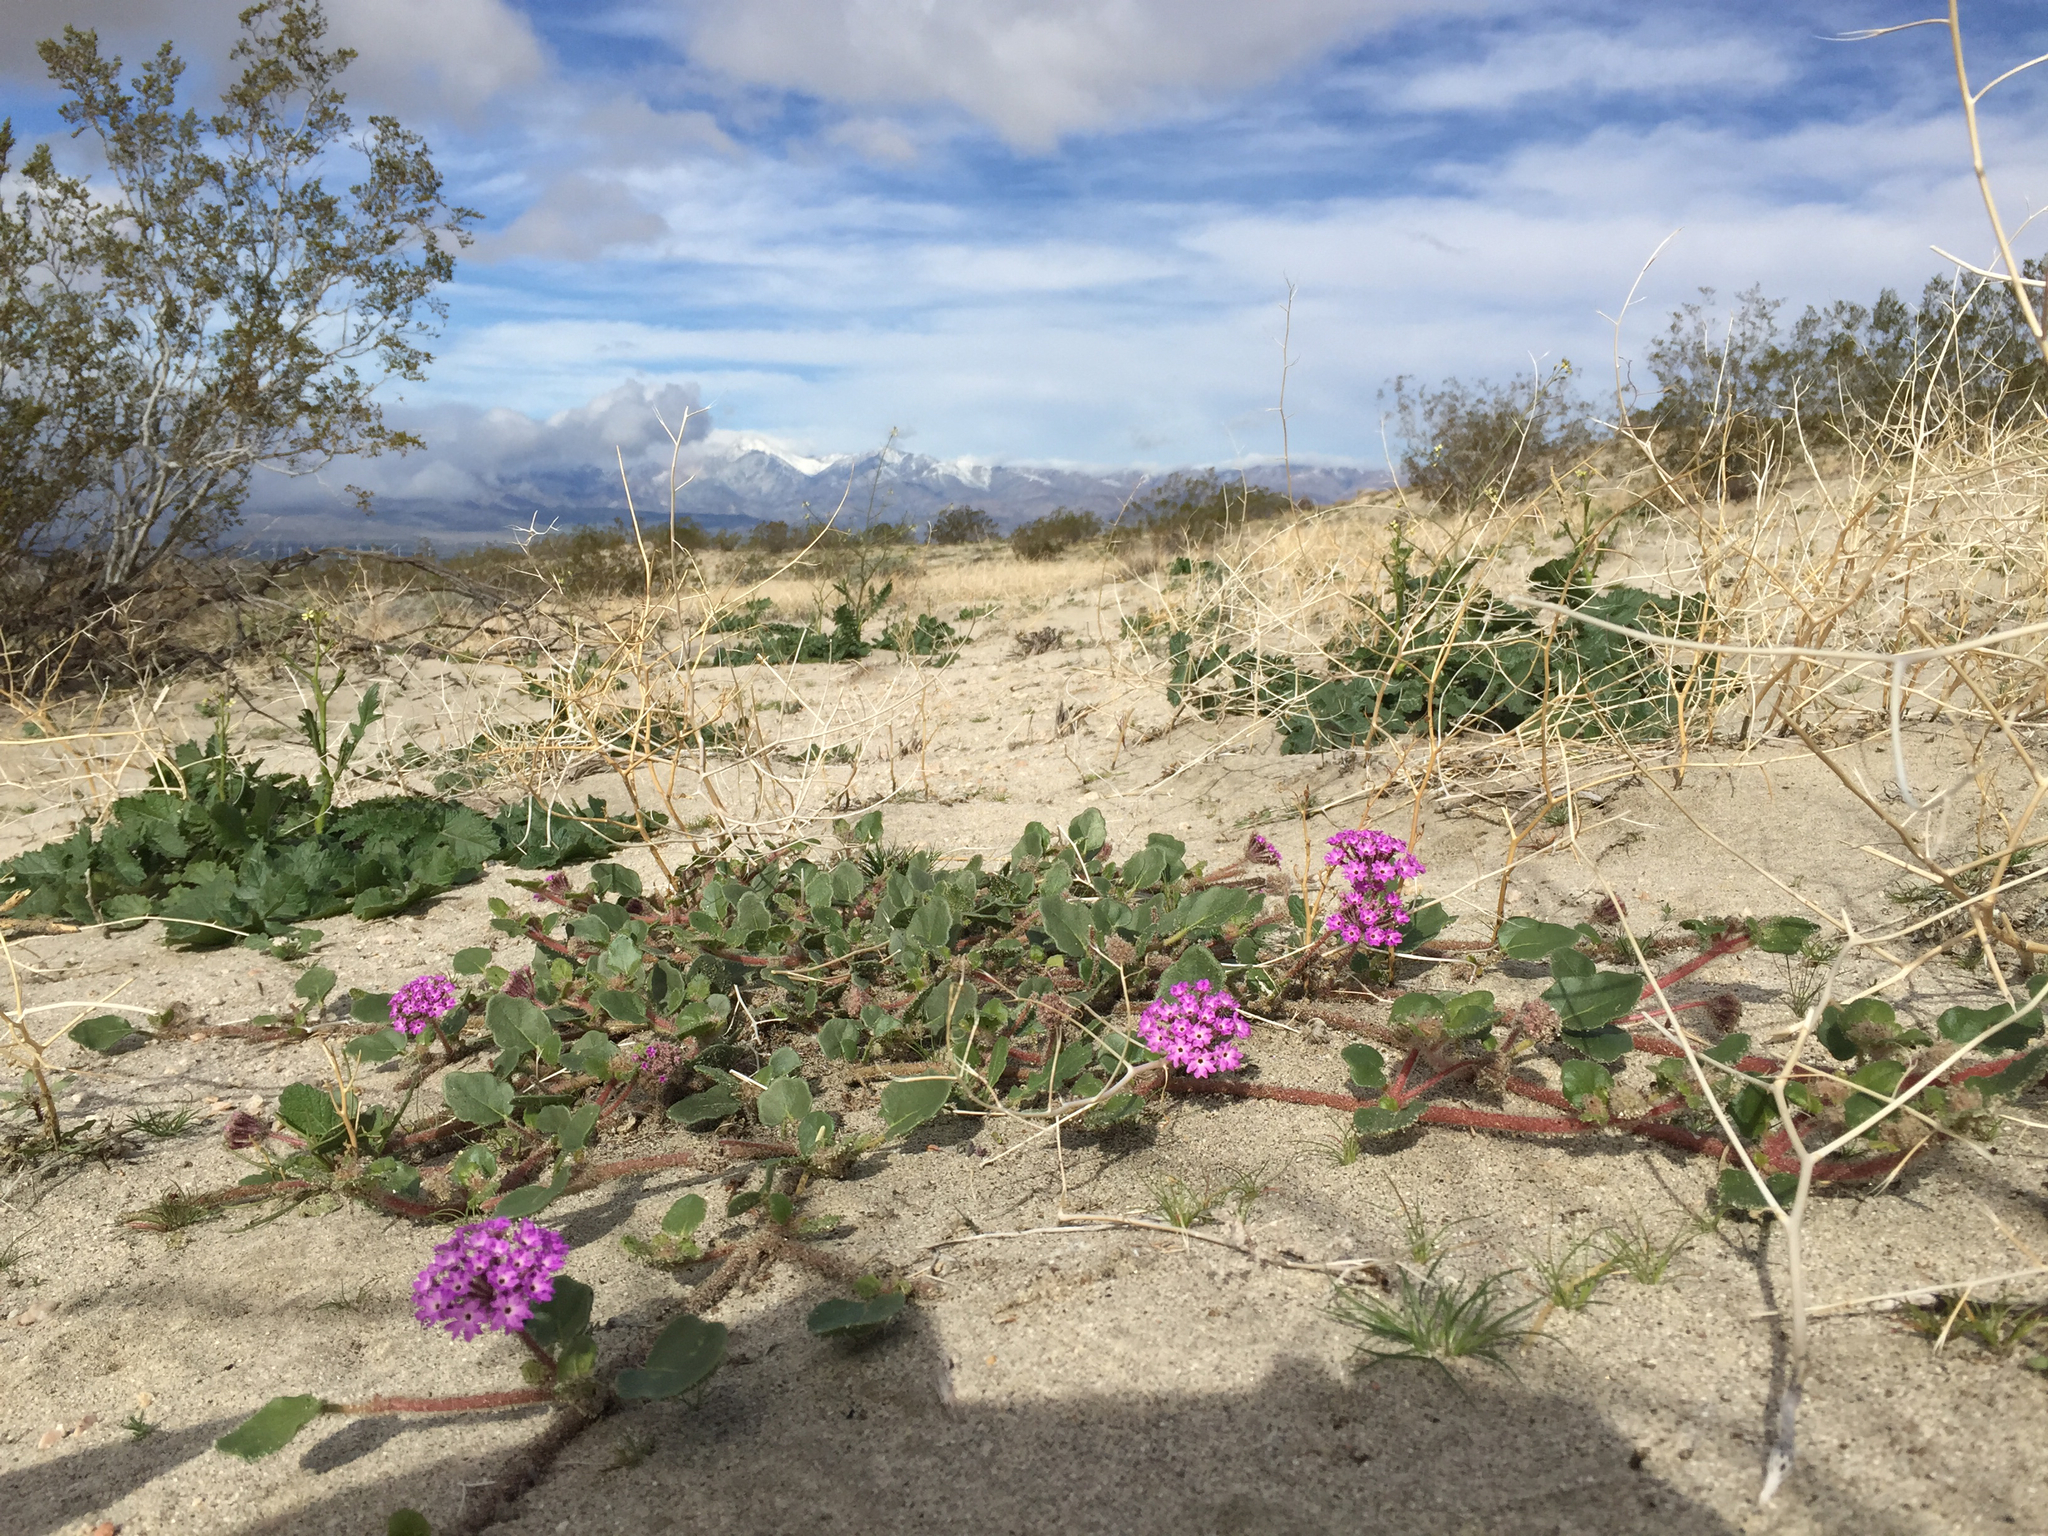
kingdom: Plantae
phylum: Tracheophyta
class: Magnoliopsida
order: Caryophyllales
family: Nyctaginaceae
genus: Abronia
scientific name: Abronia villosa
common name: Desert sand-verbena
